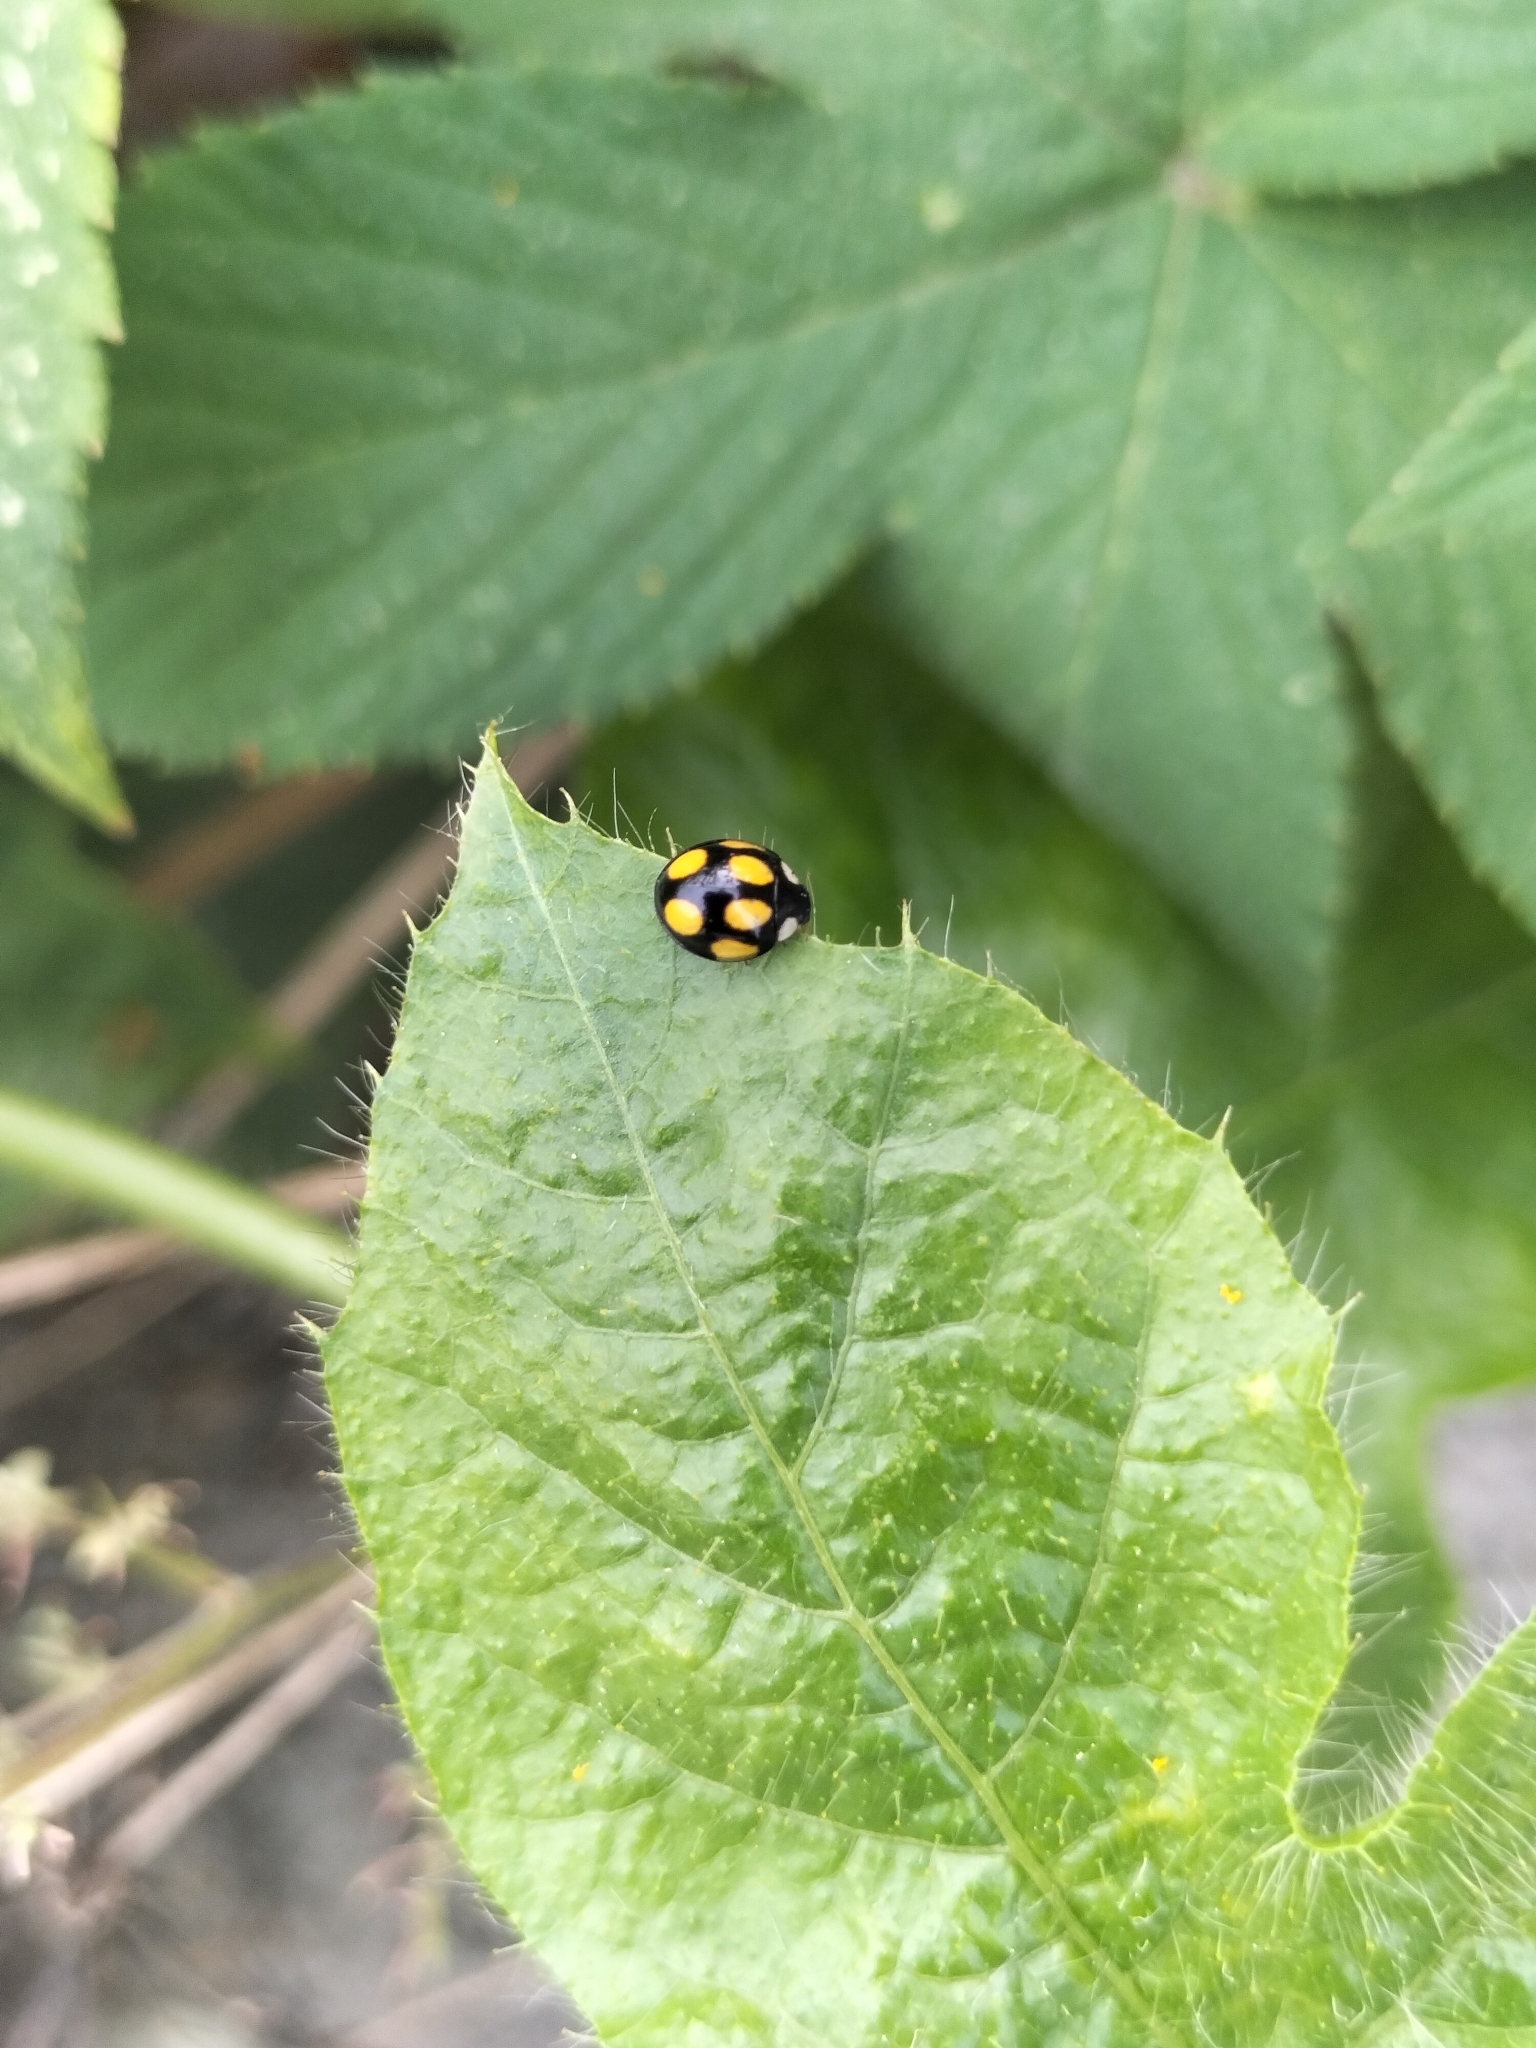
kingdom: Animalia
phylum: Arthropoda
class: Insecta
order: Coleoptera
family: Coccinellidae
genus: Oenopia
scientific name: Oenopia formosana
